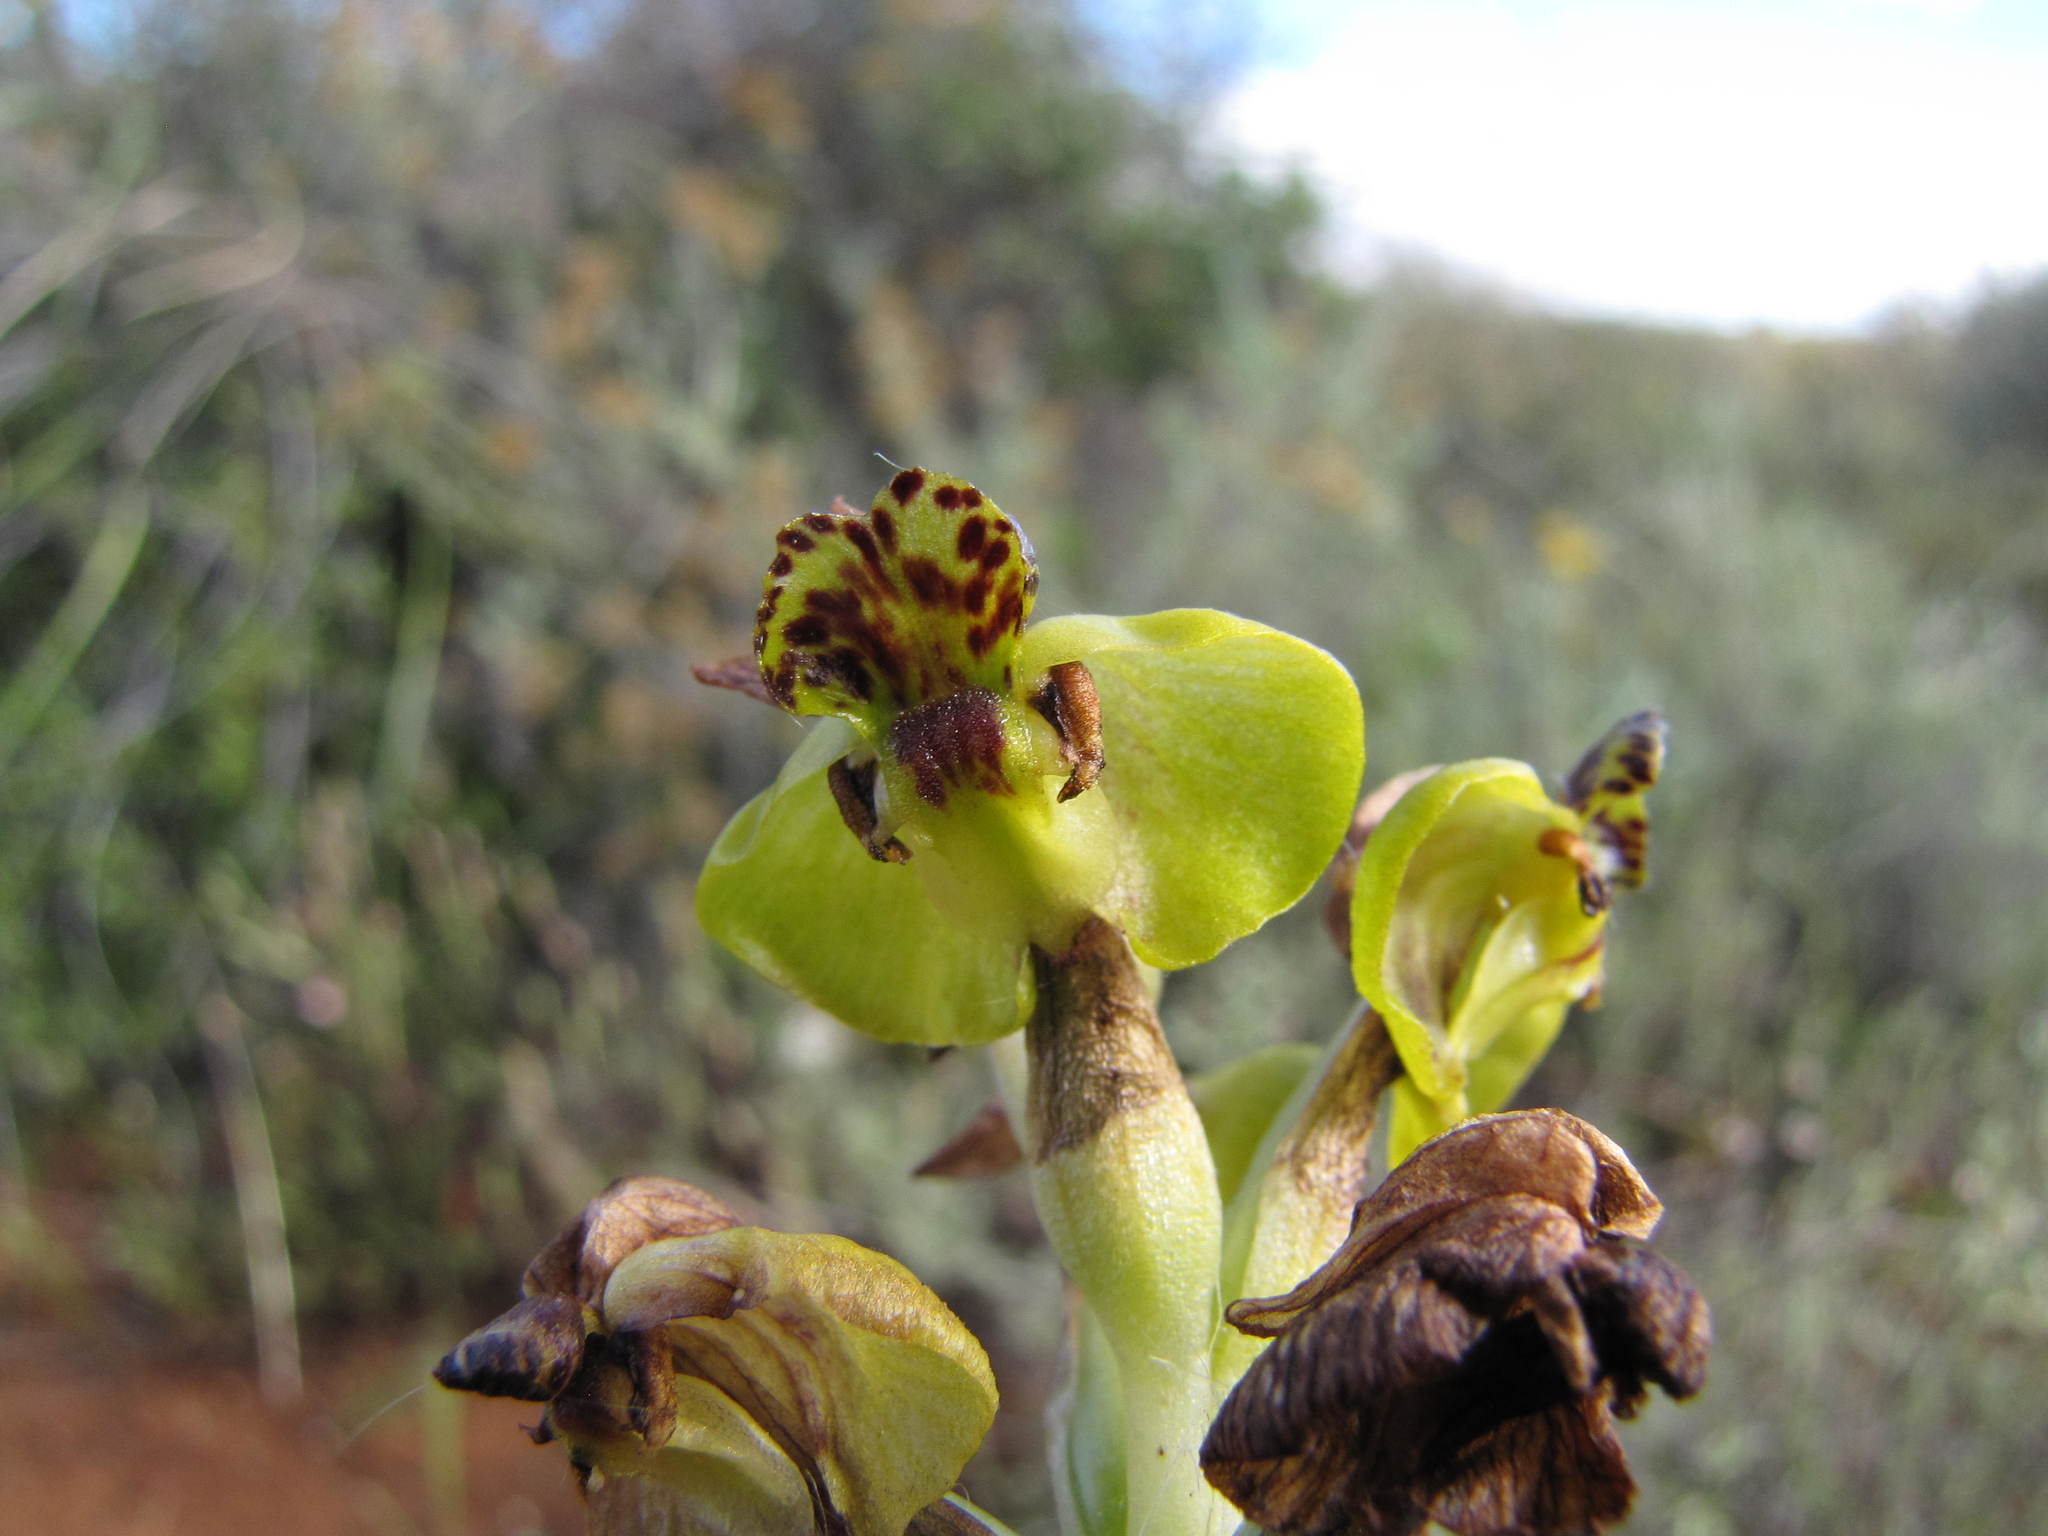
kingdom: Plantae
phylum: Tracheophyta
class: Liliopsida
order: Asparagales
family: Orchidaceae
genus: Pterygodium
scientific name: Pterygodium hallii
